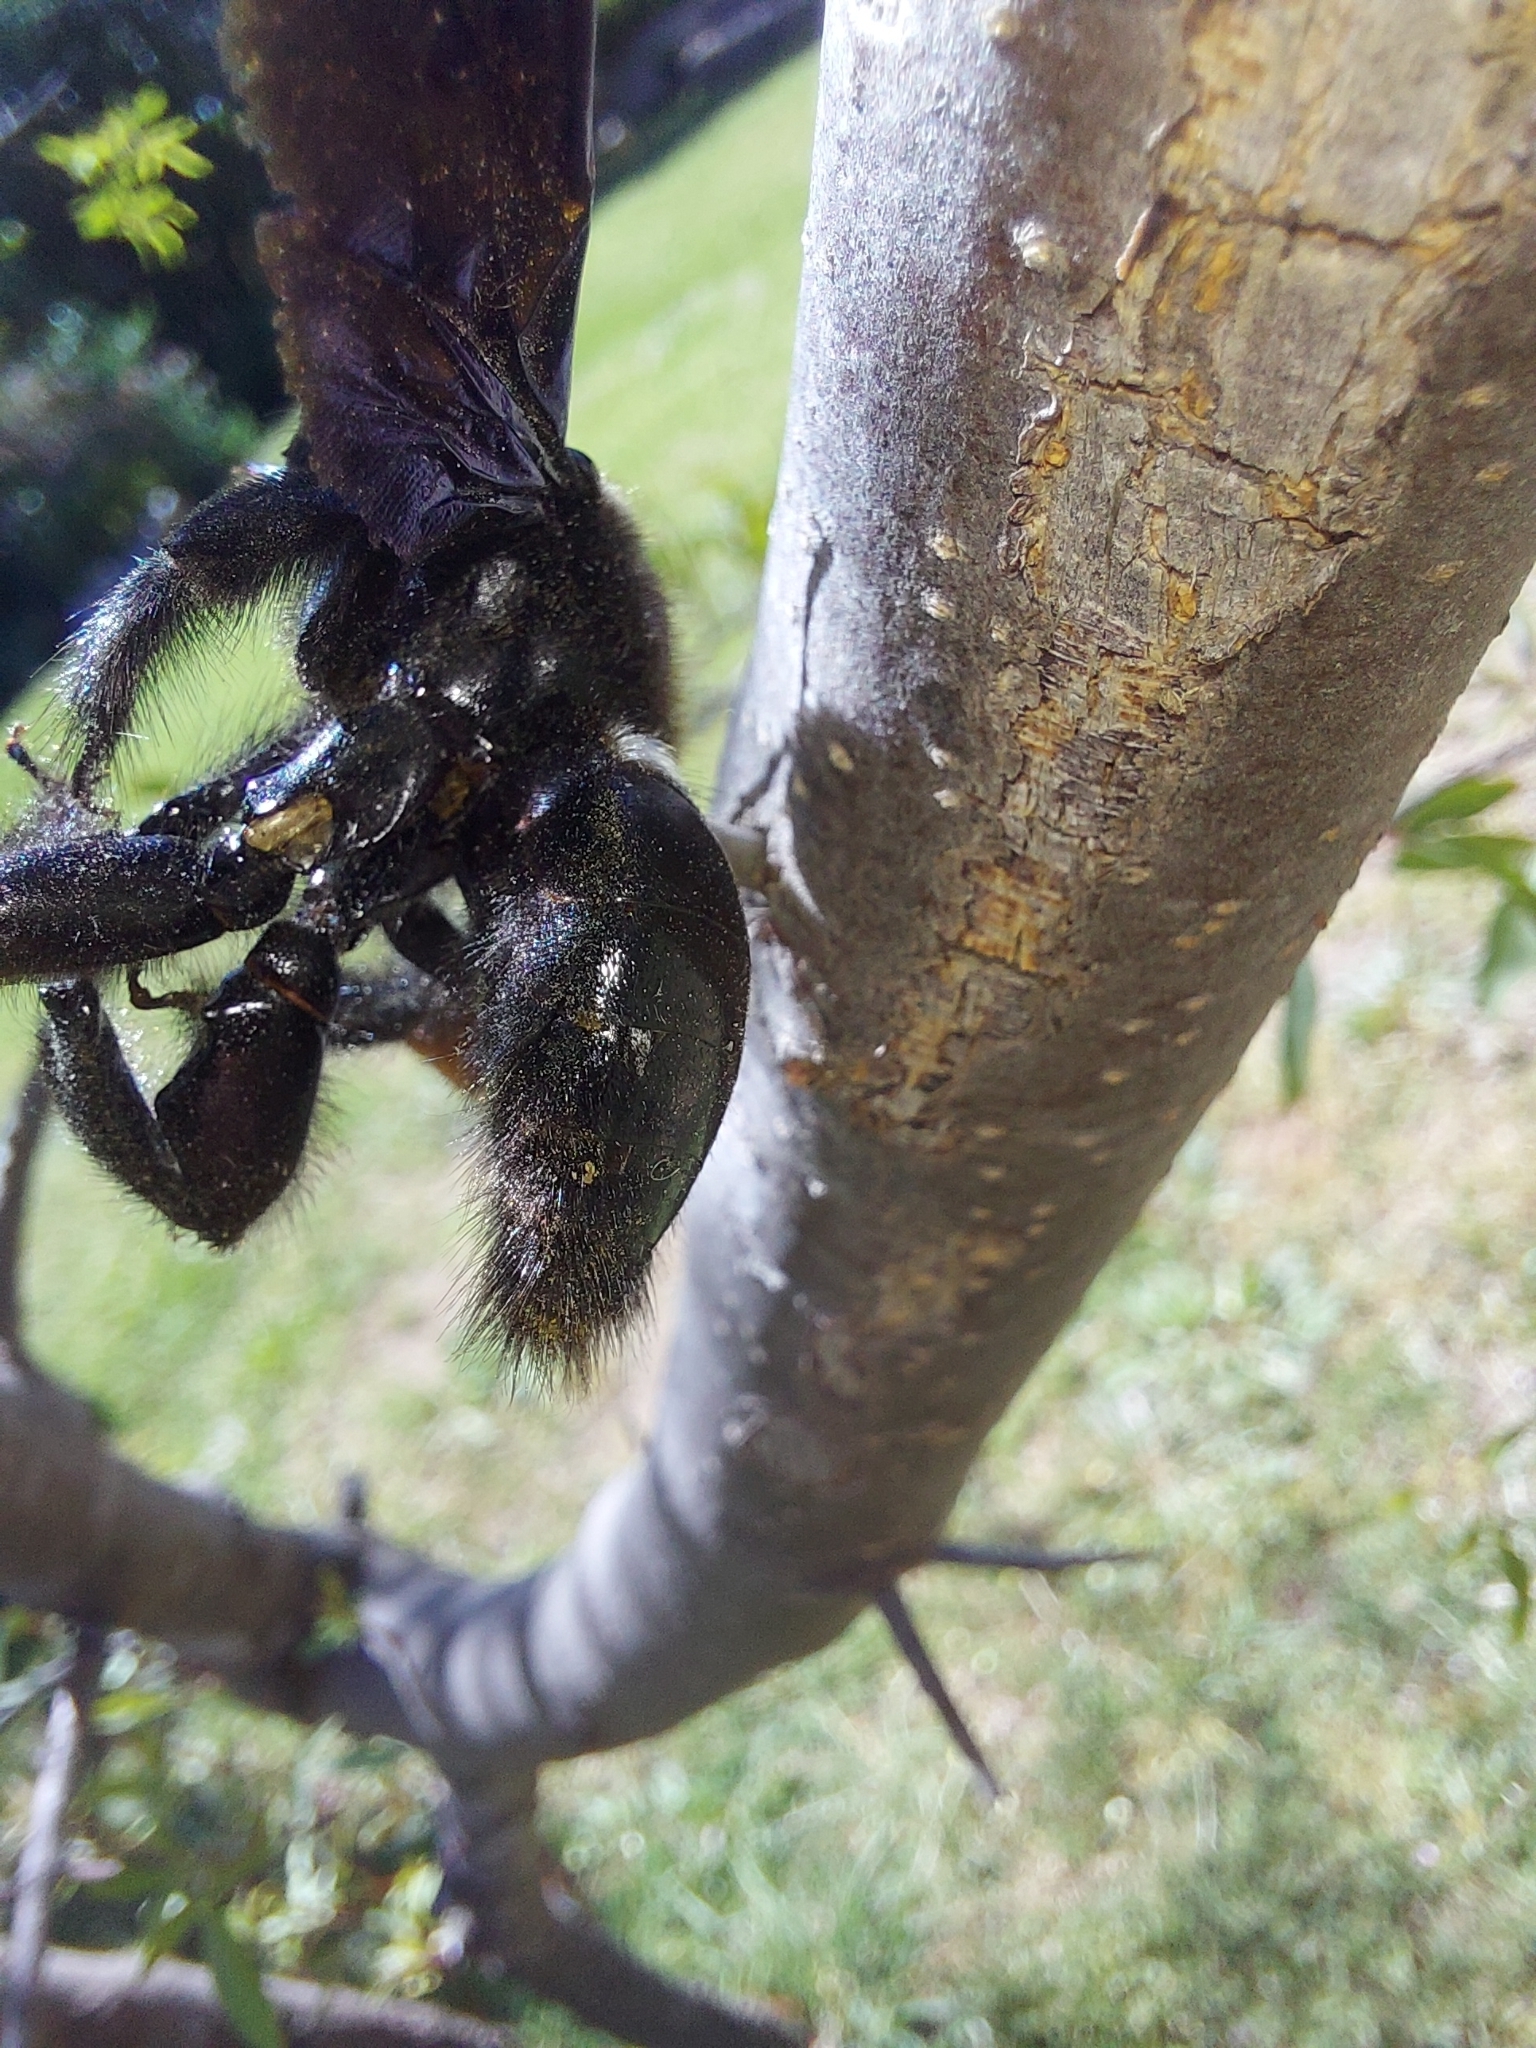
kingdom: Animalia
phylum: Arthropoda
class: Insecta
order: Hymenoptera
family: Apidae
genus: Xylocopa
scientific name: Xylocopa capitata
